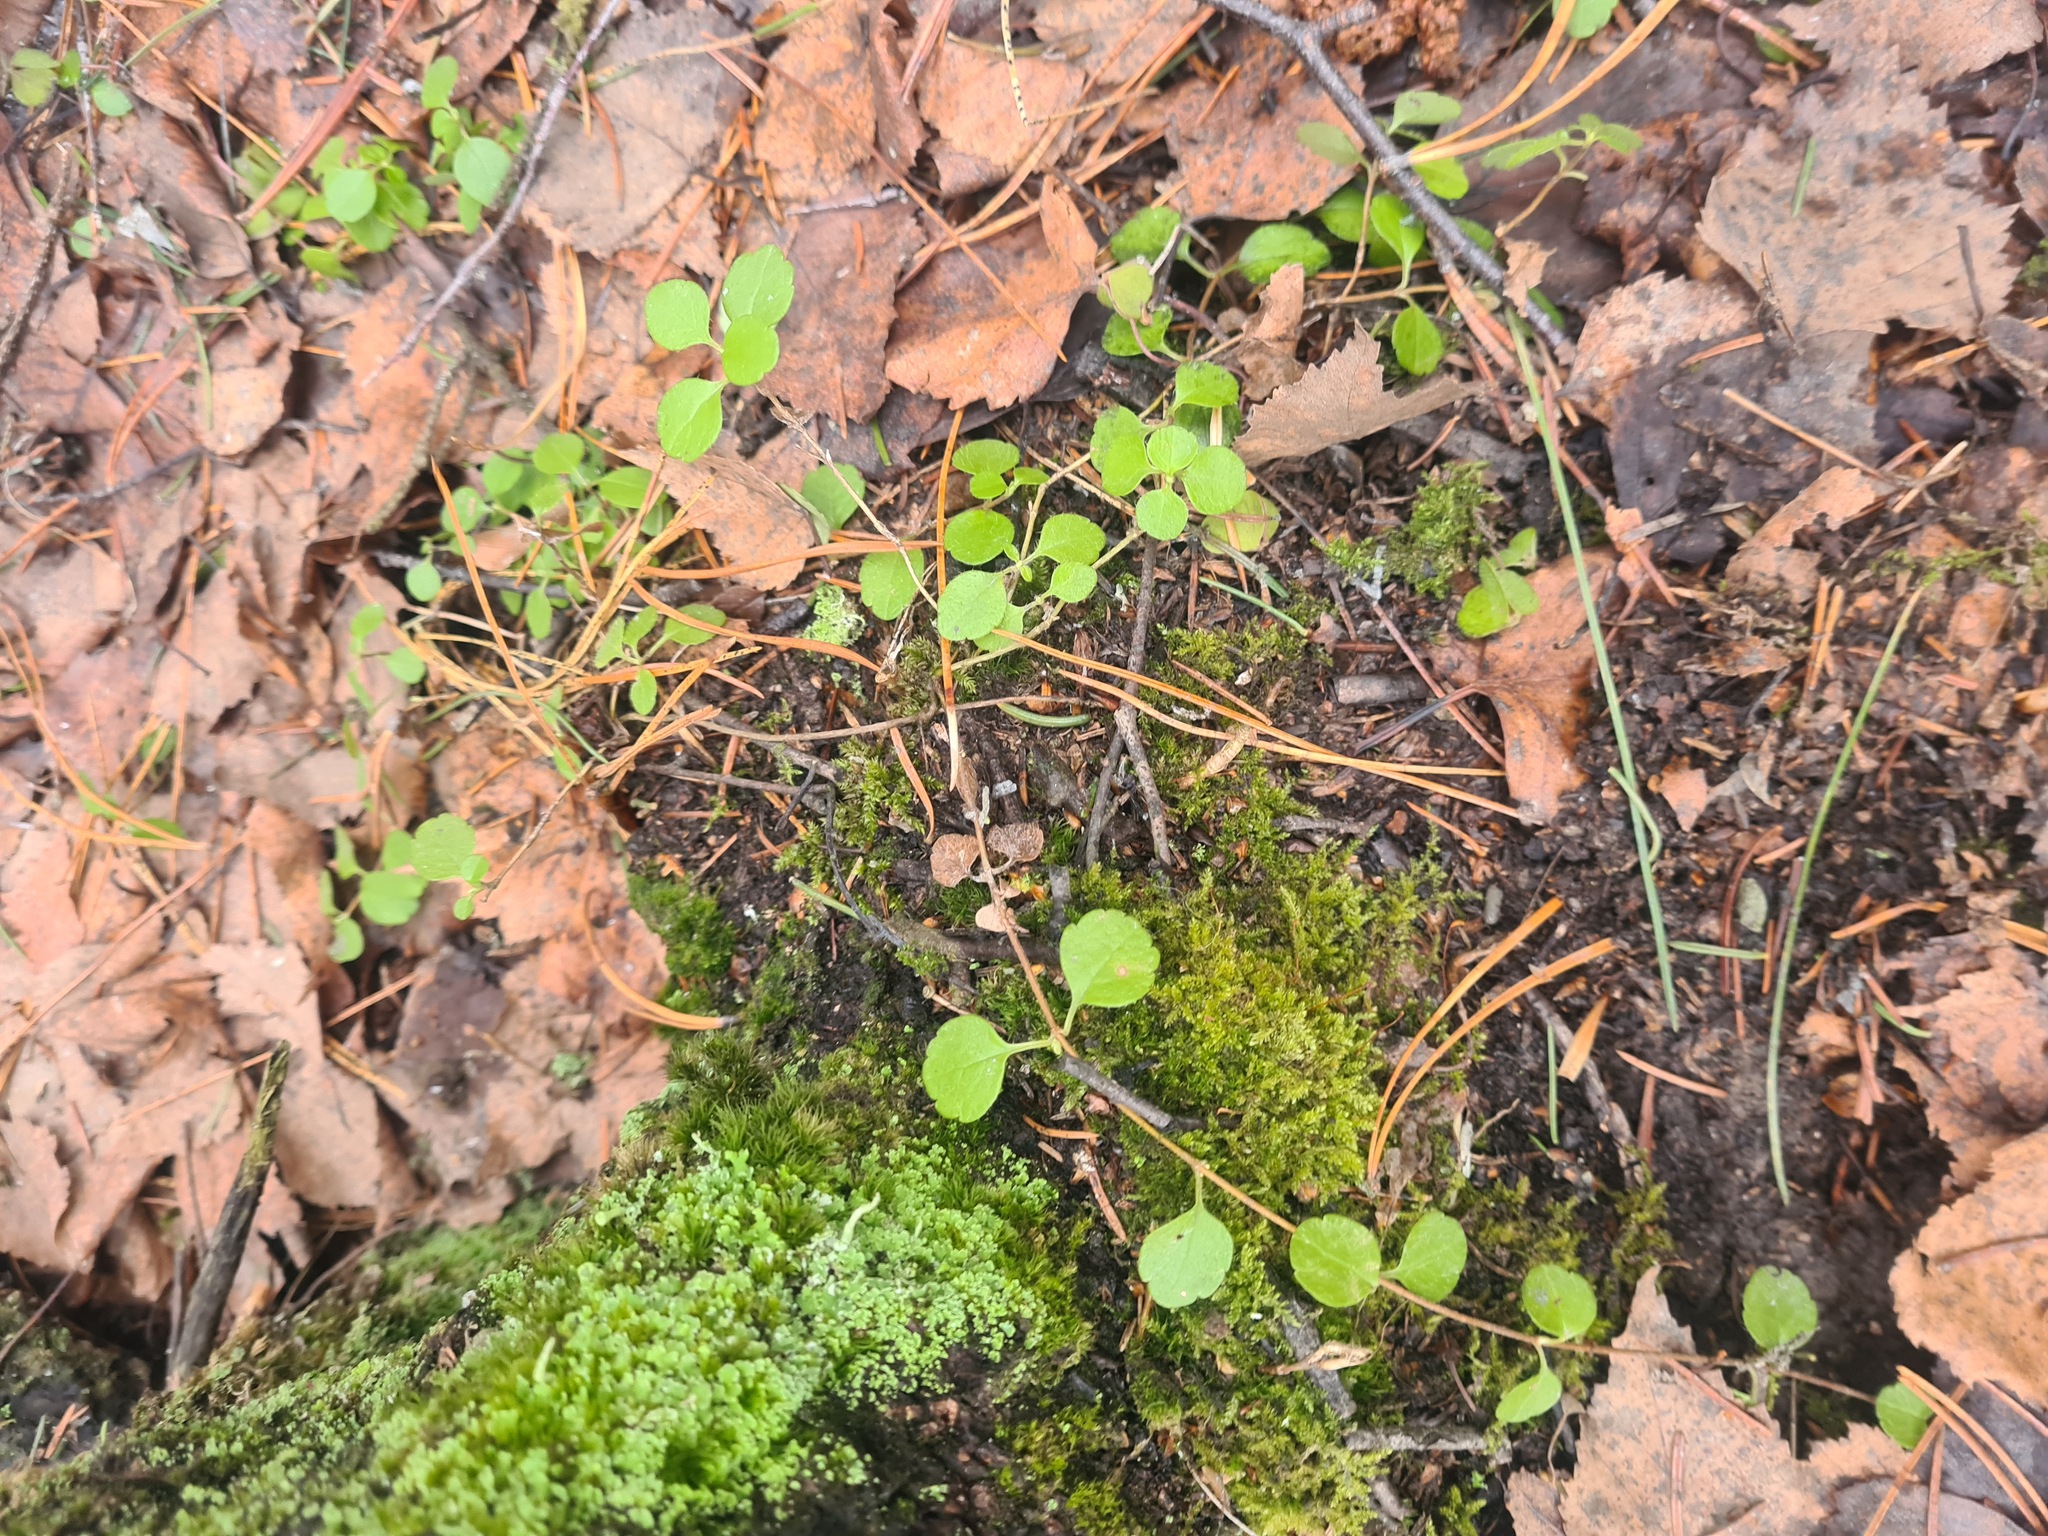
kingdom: Plantae
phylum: Tracheophyta
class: Magnoliopsida
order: Dipsacales
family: Caprifoliaceae
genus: Linnaea
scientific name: Linnaea borealis
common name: Twinflower
